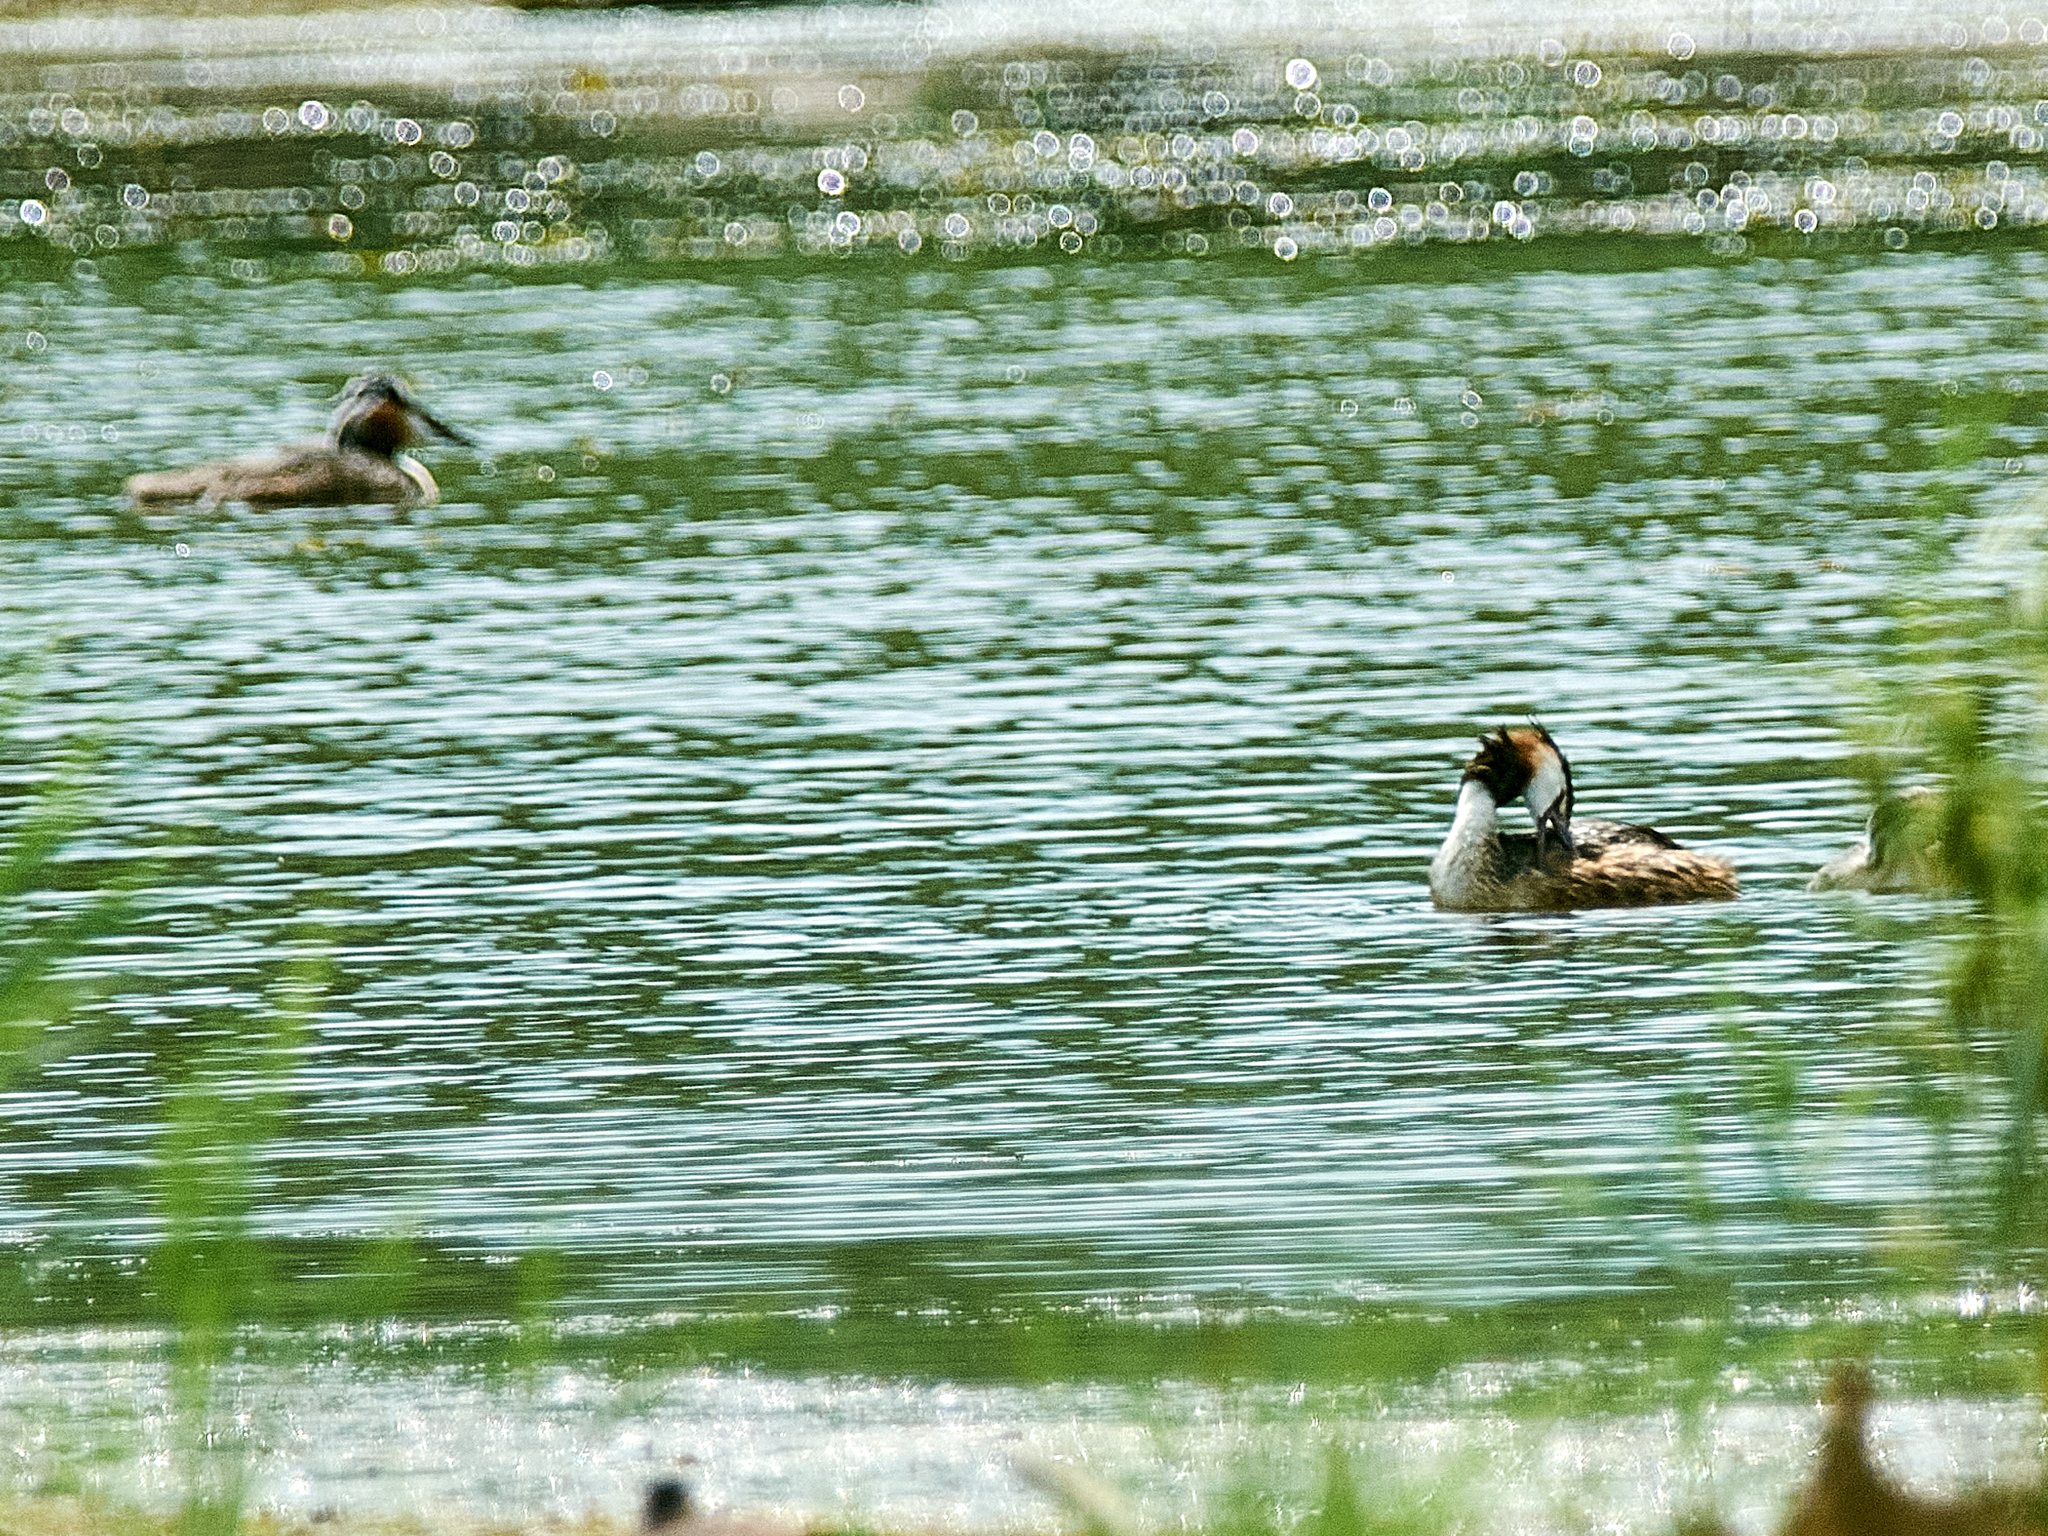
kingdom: Animalia
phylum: Chordata
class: Aves
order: Podicipediformes
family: Podicipedidae
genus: Podiceps
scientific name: Podiceps cristatus
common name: Great crested grebe
